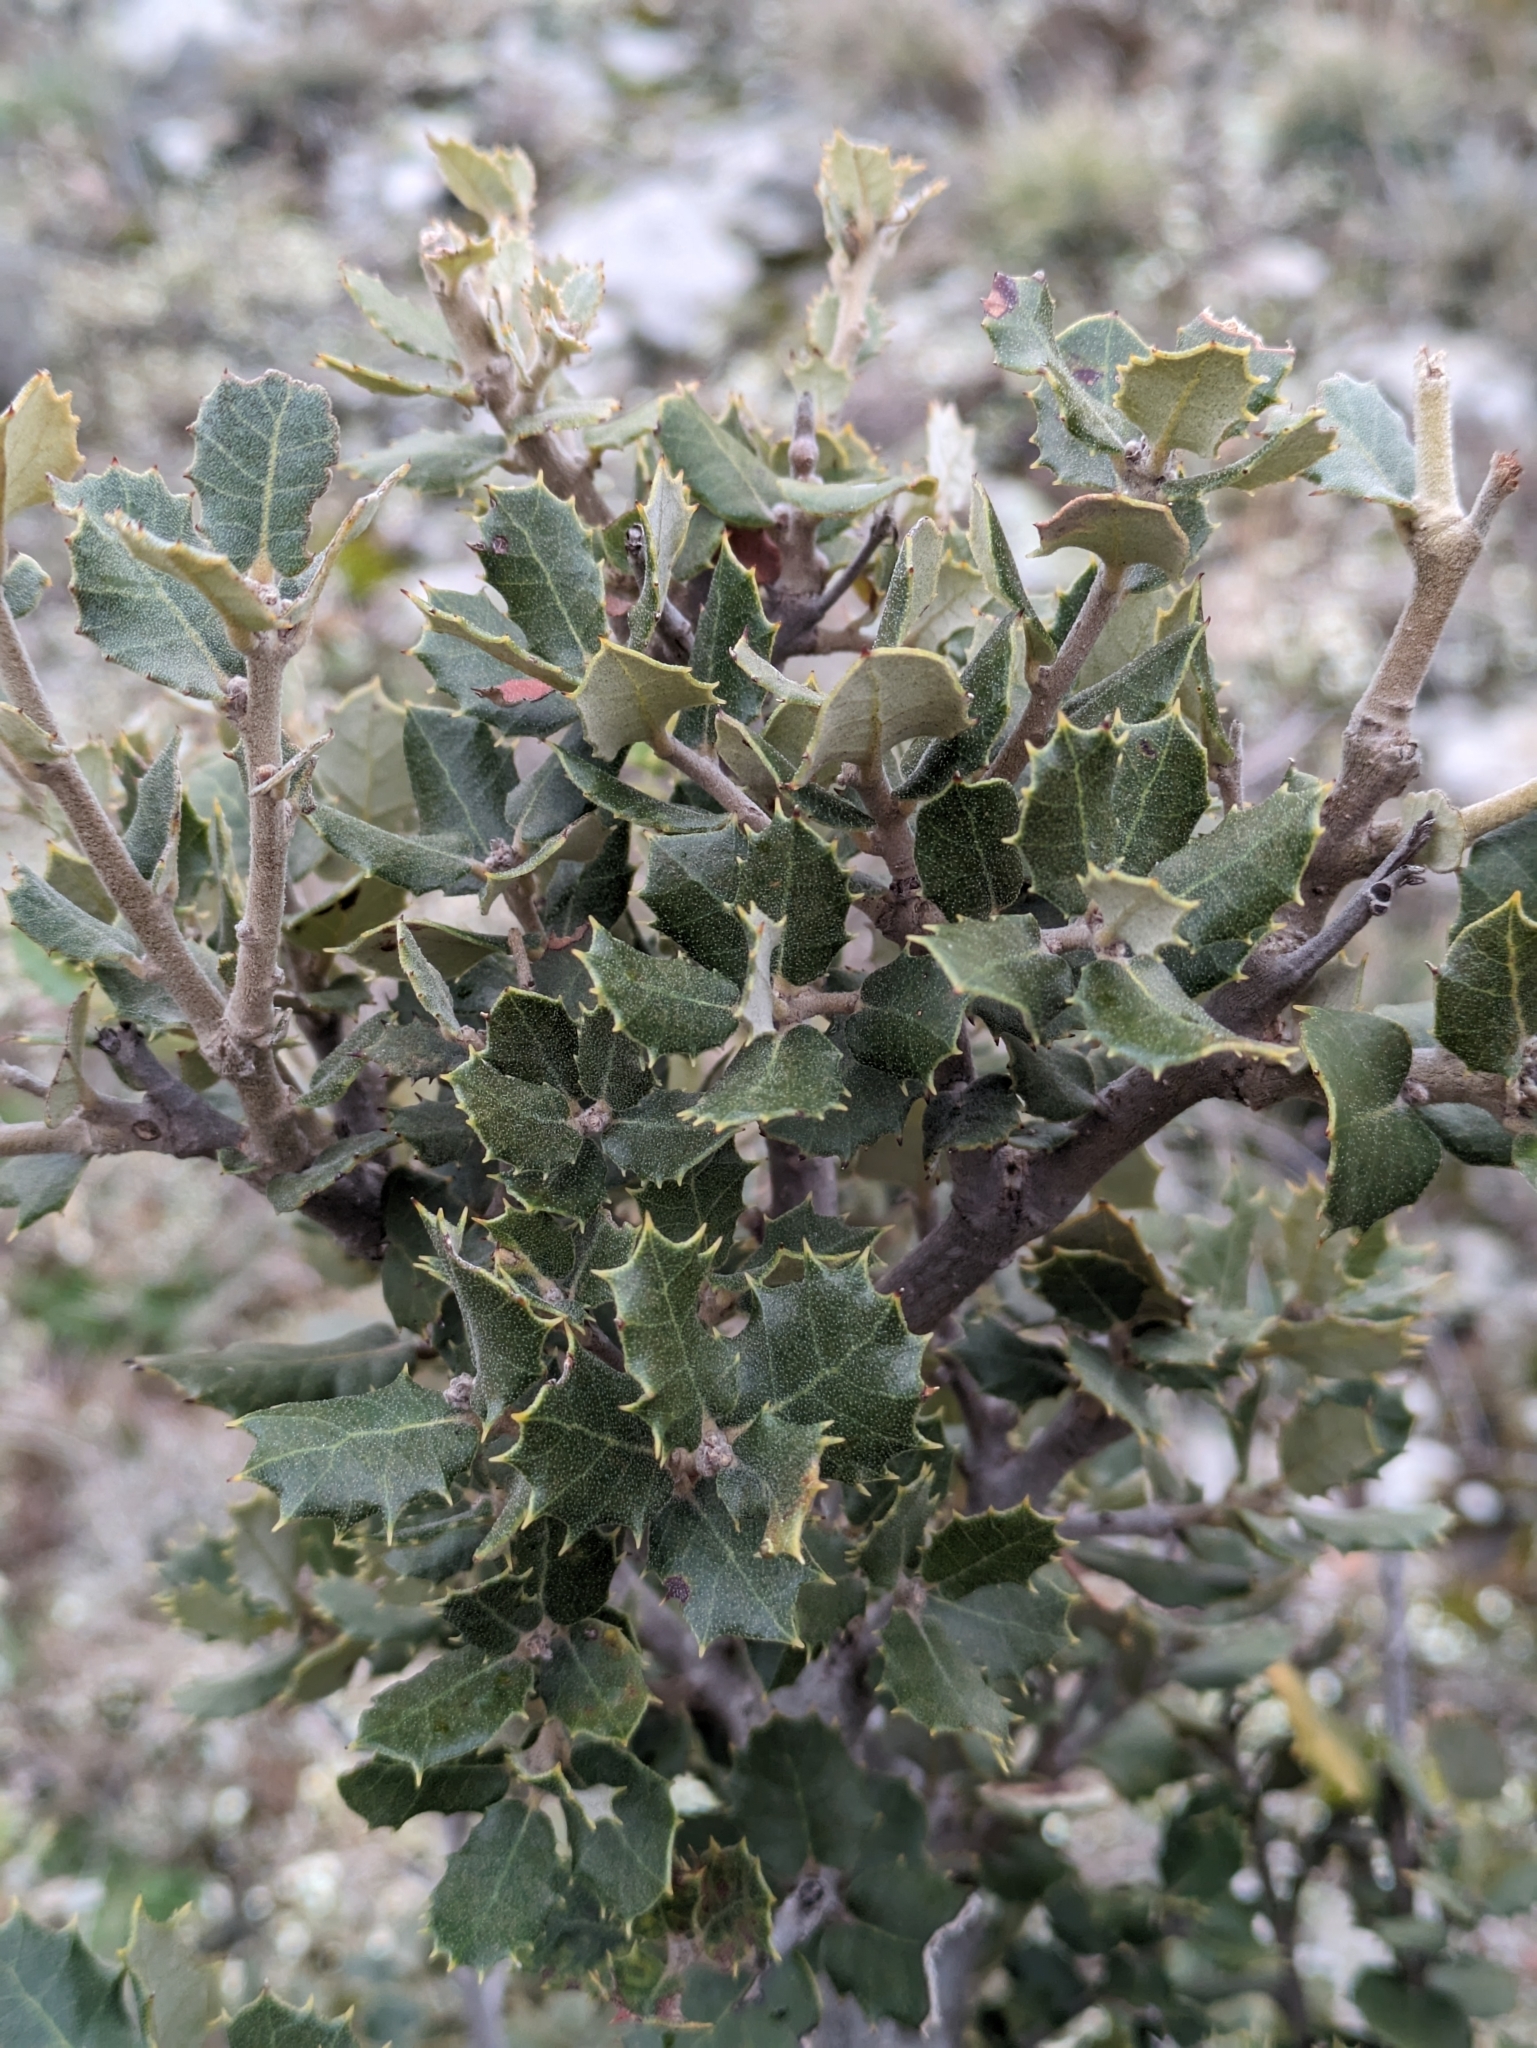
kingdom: Plantae
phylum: Tracheophyta
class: Magnoliopsida
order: Fagales
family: Fagaceae
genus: Quercus
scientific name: Quercus rotundifolia
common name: Holm oak
